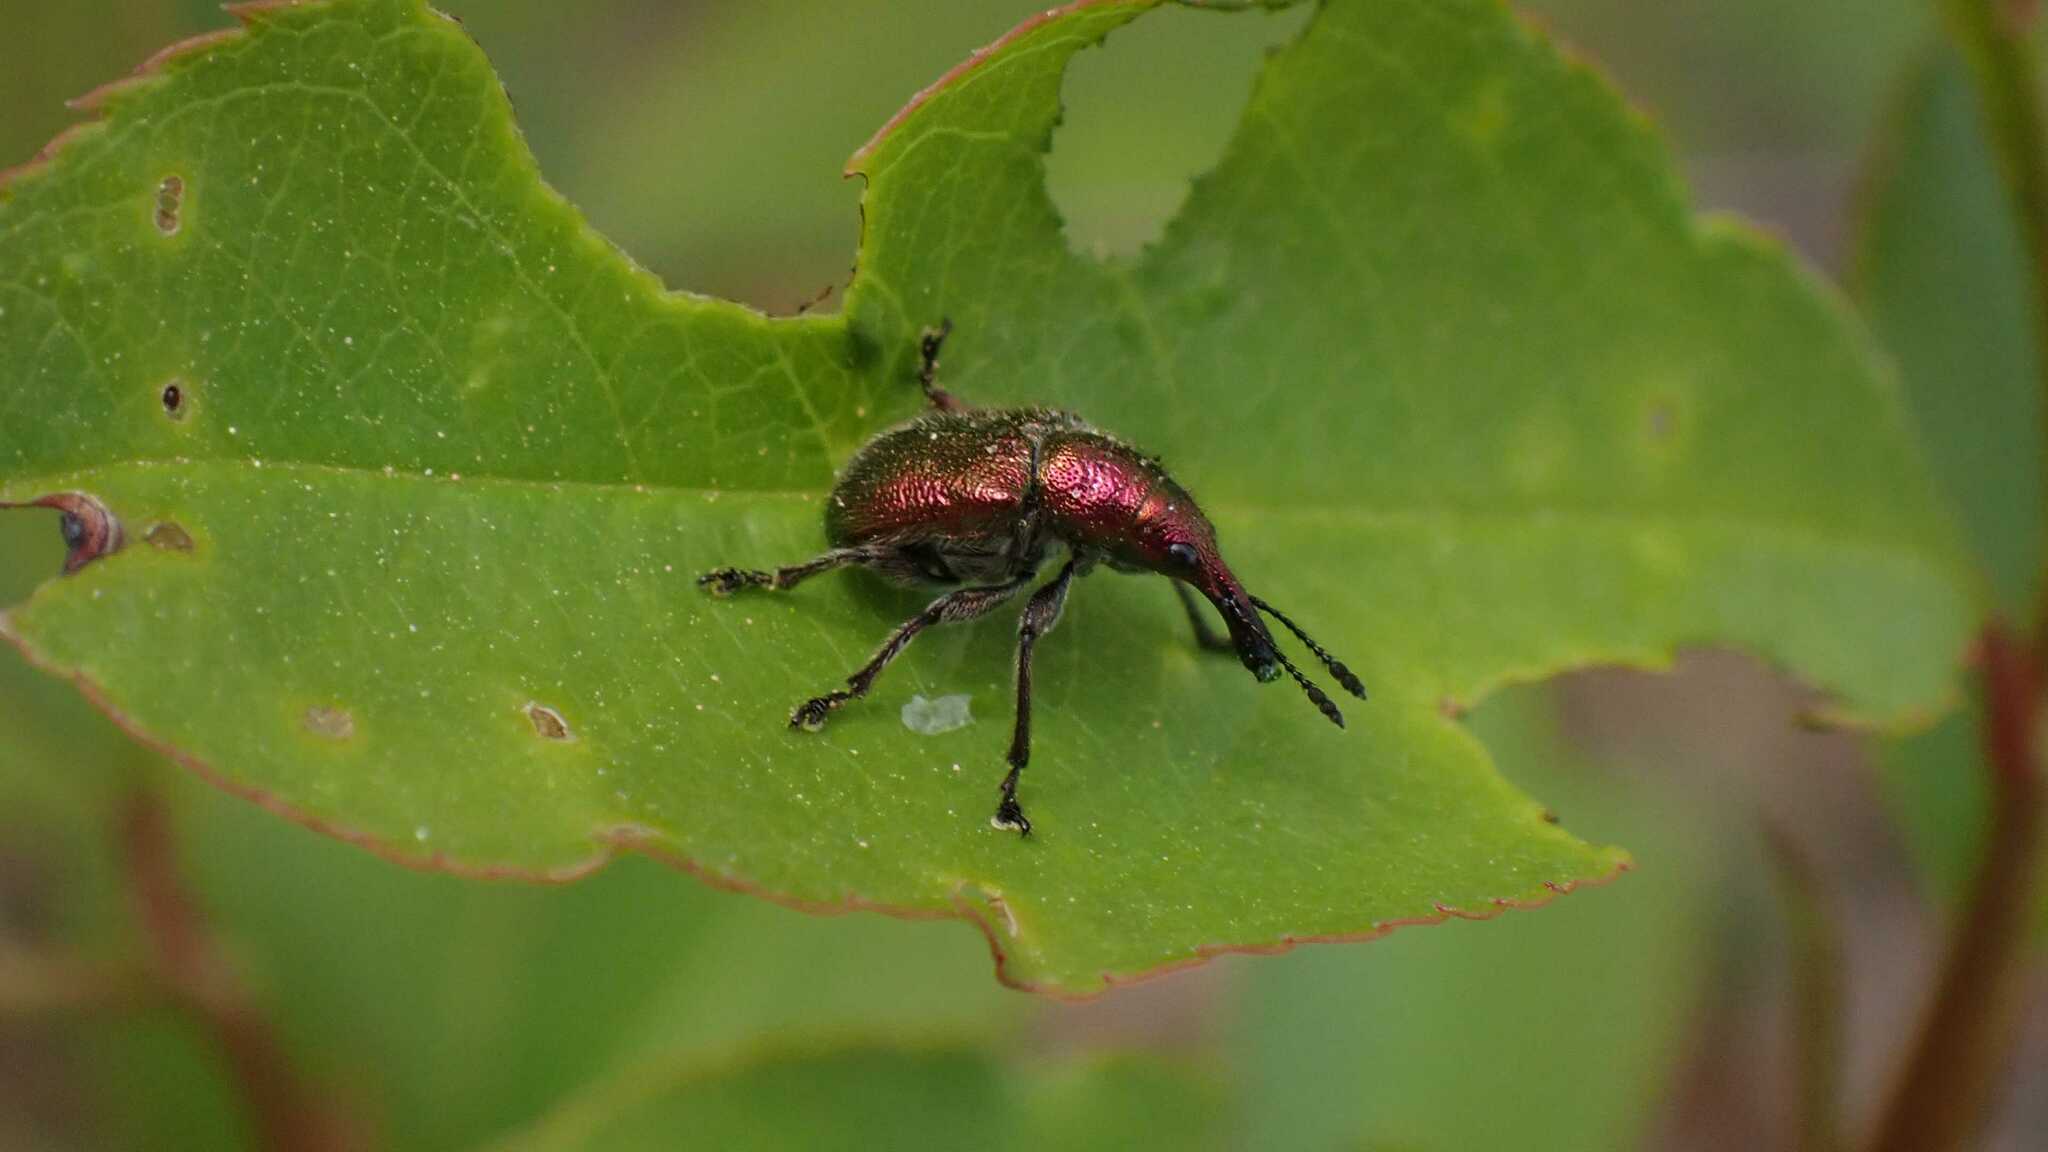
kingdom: Animalia
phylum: Arthropoda
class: Insecta
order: Coleoptera
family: Attelabidae
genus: Rhynchites
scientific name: Rhynchites auratus
